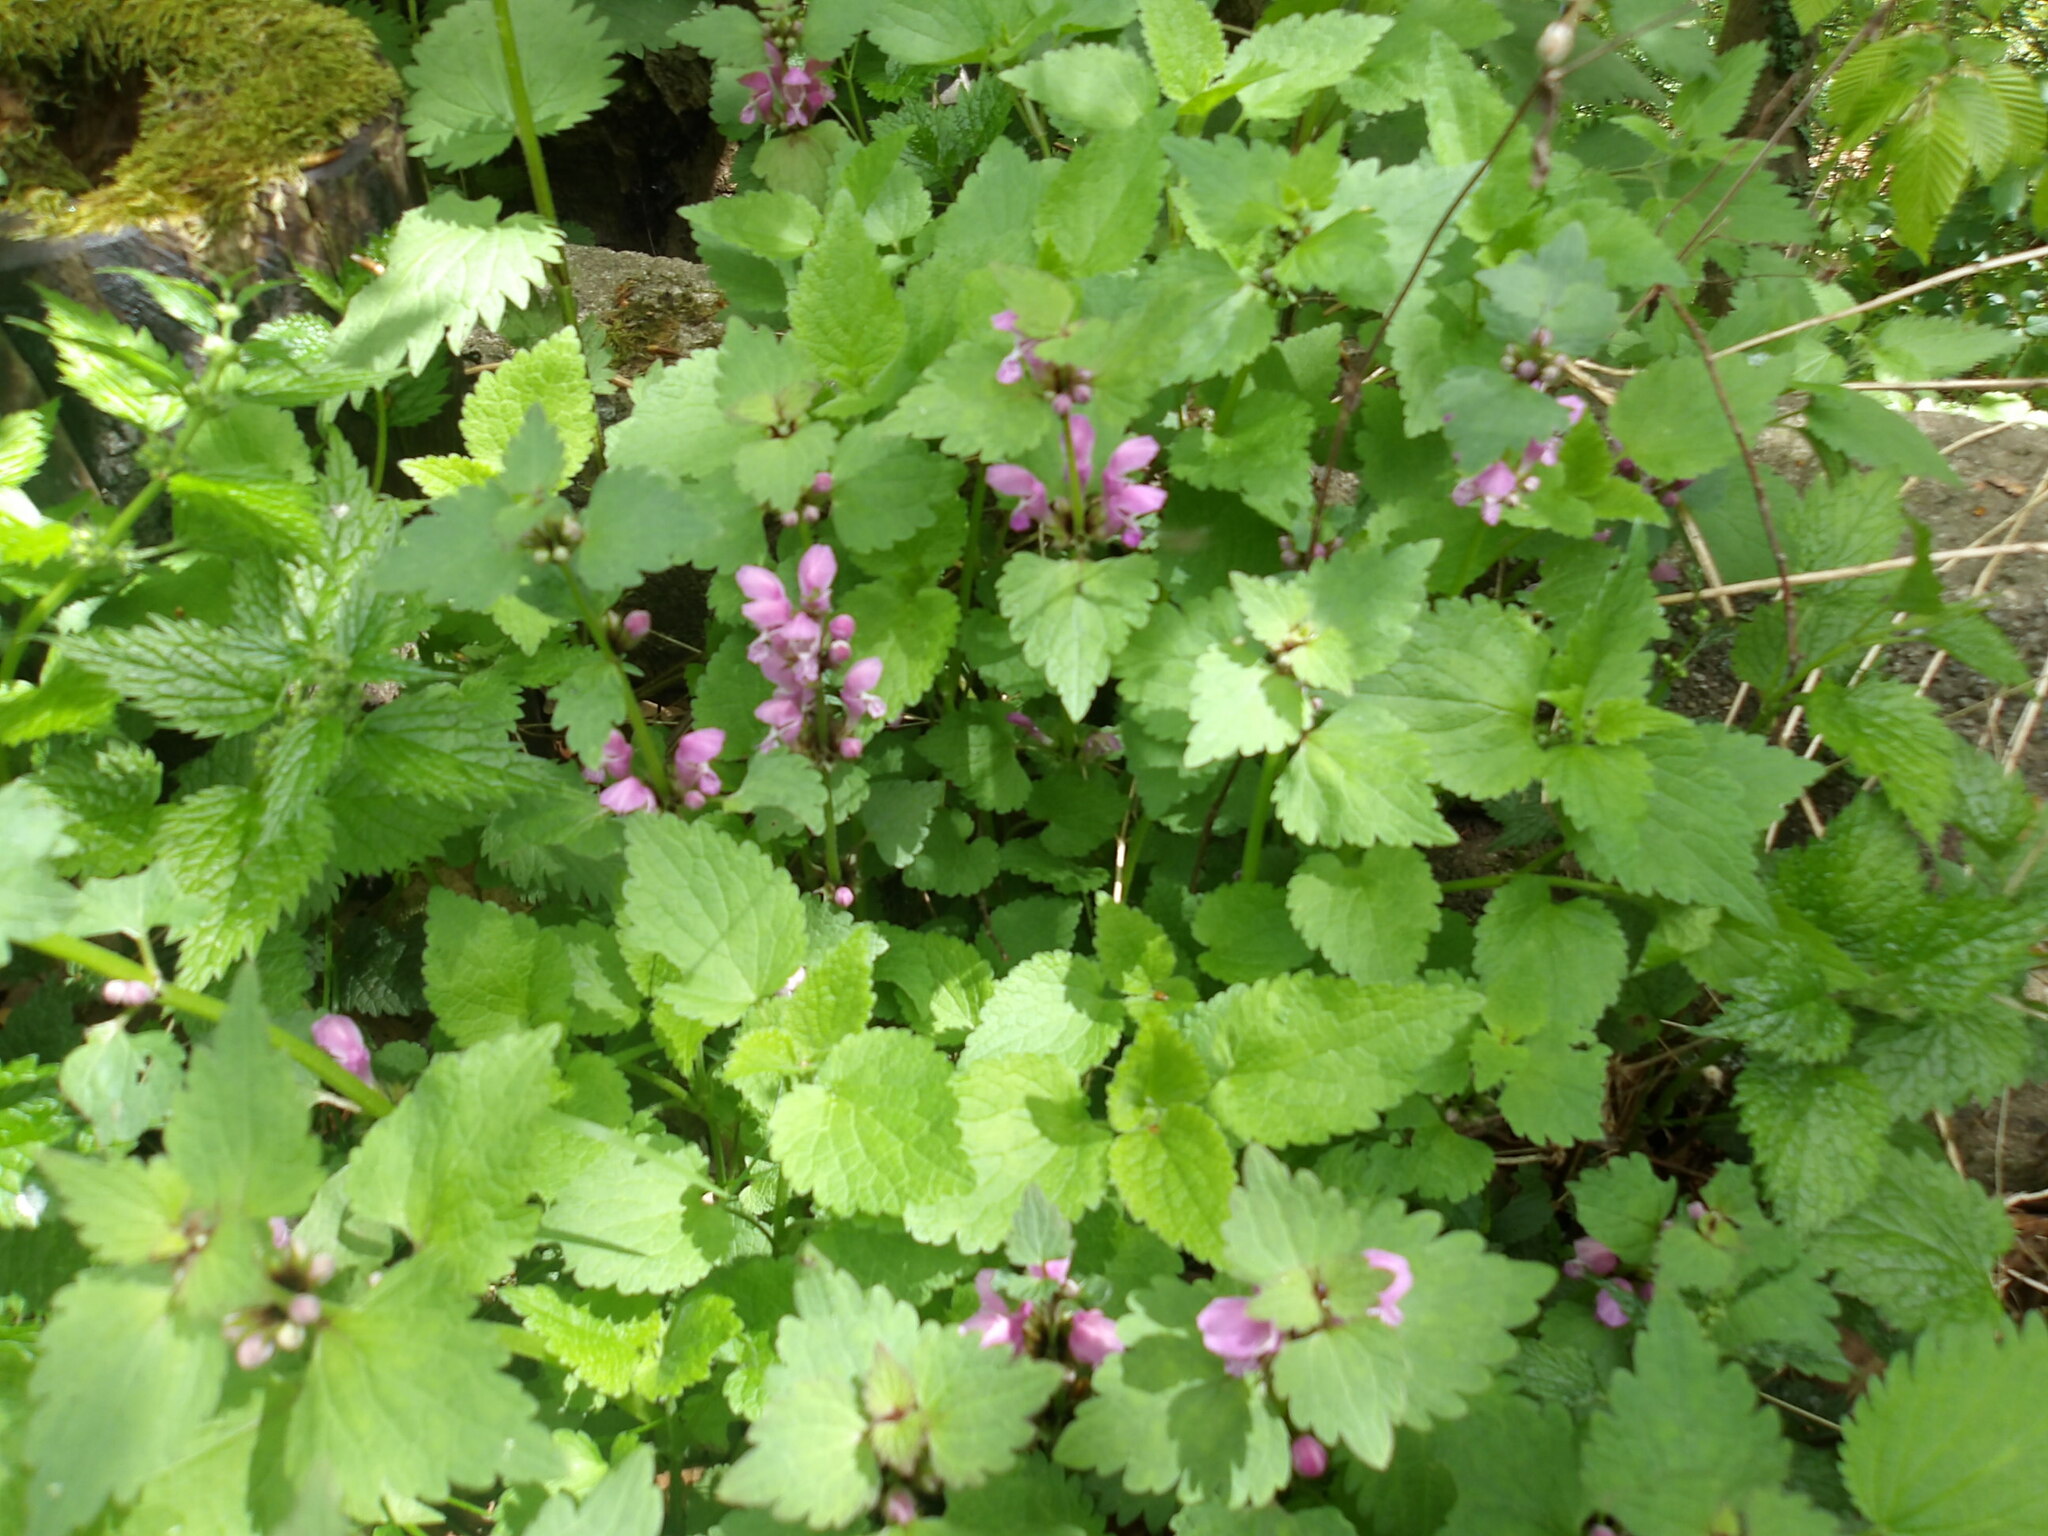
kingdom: Plantae
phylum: Tracheophyta
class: Magnoliopsida
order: Lamiales
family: Lamiaceae
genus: Lamium
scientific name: Lamium maculatum
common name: Spotted dead-nettle
